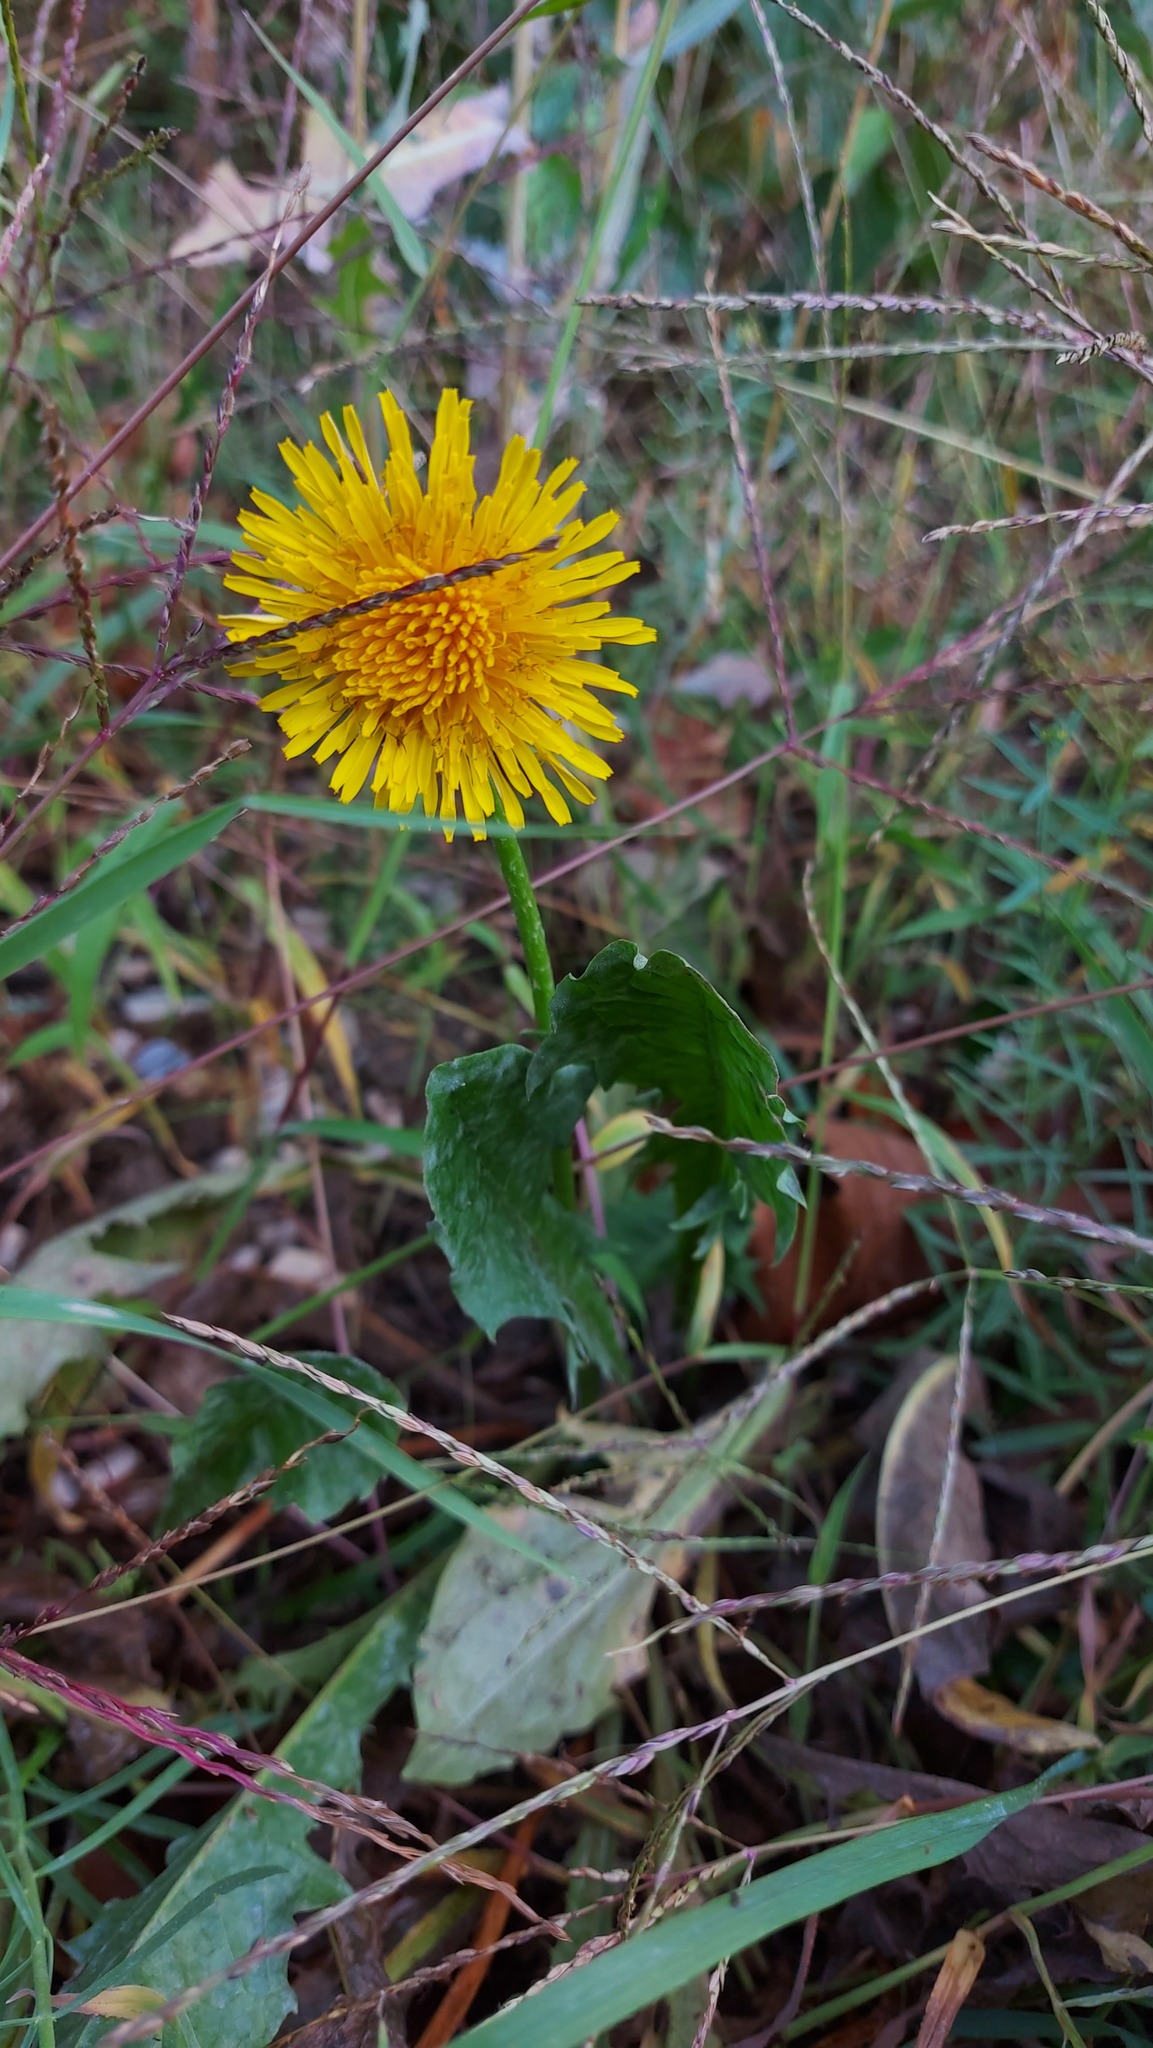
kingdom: Plantae
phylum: Tracheophyta
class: Magnoliopsida
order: Asterales
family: Asteraceae
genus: Taraxacum
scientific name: Taraxacum officinale
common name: Common dandelion
